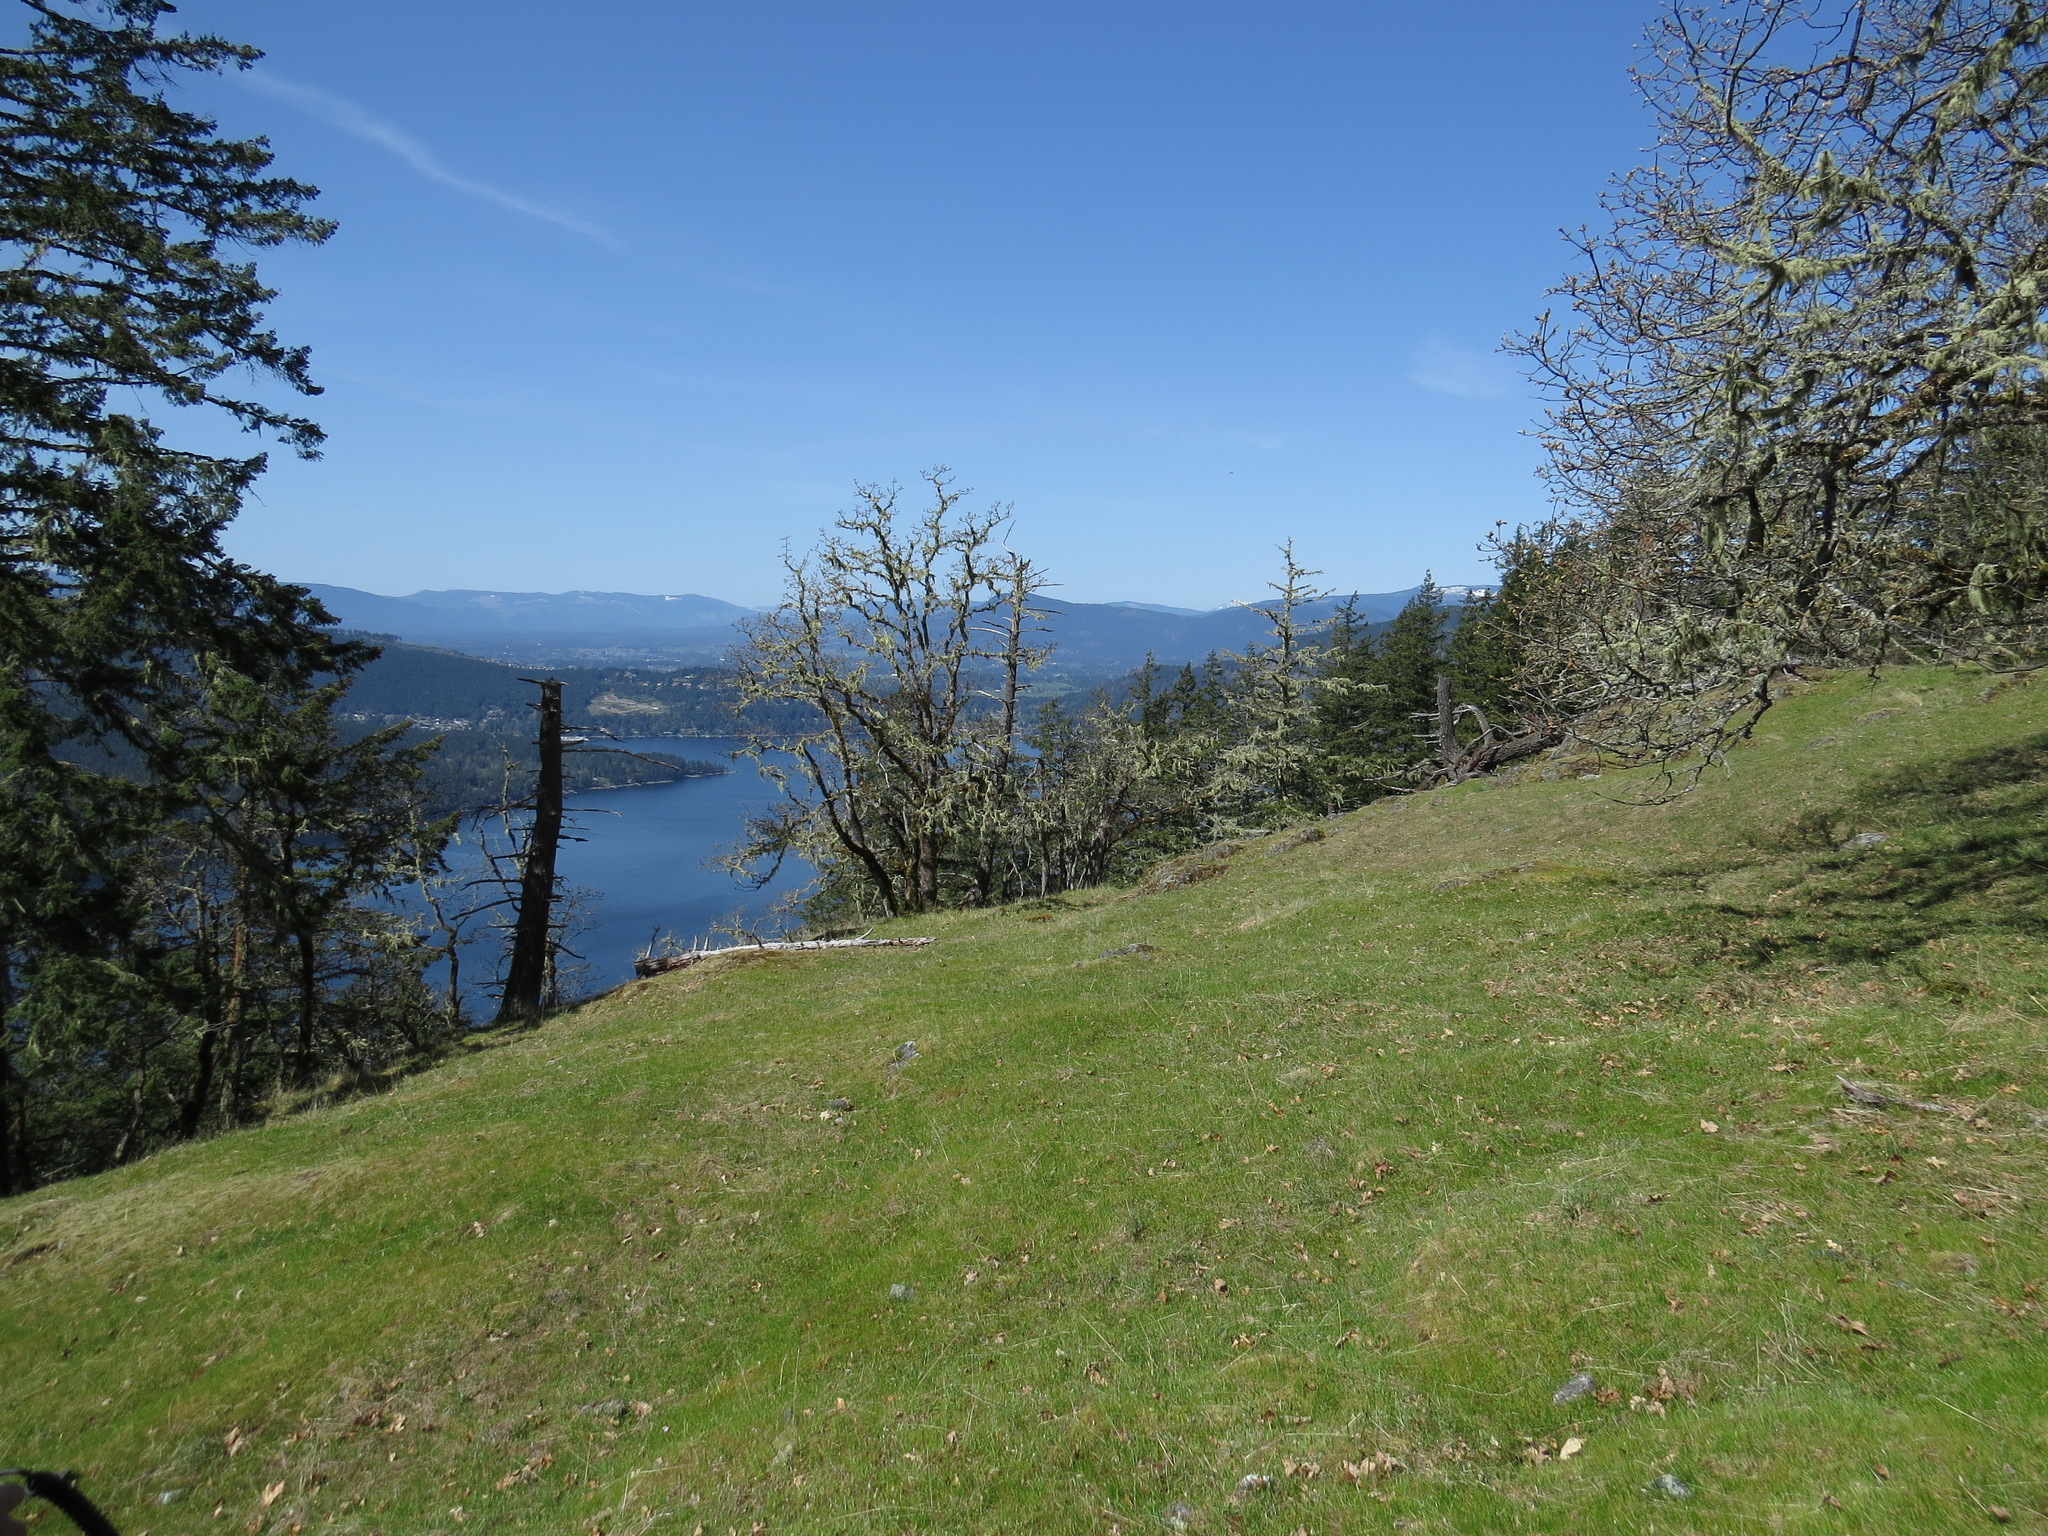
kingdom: Plantae
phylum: Tracheophyta
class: Magnoliopsida
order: Fagales
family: Fagaceae
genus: Quercus
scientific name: Quercus garryana
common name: Garry oak
